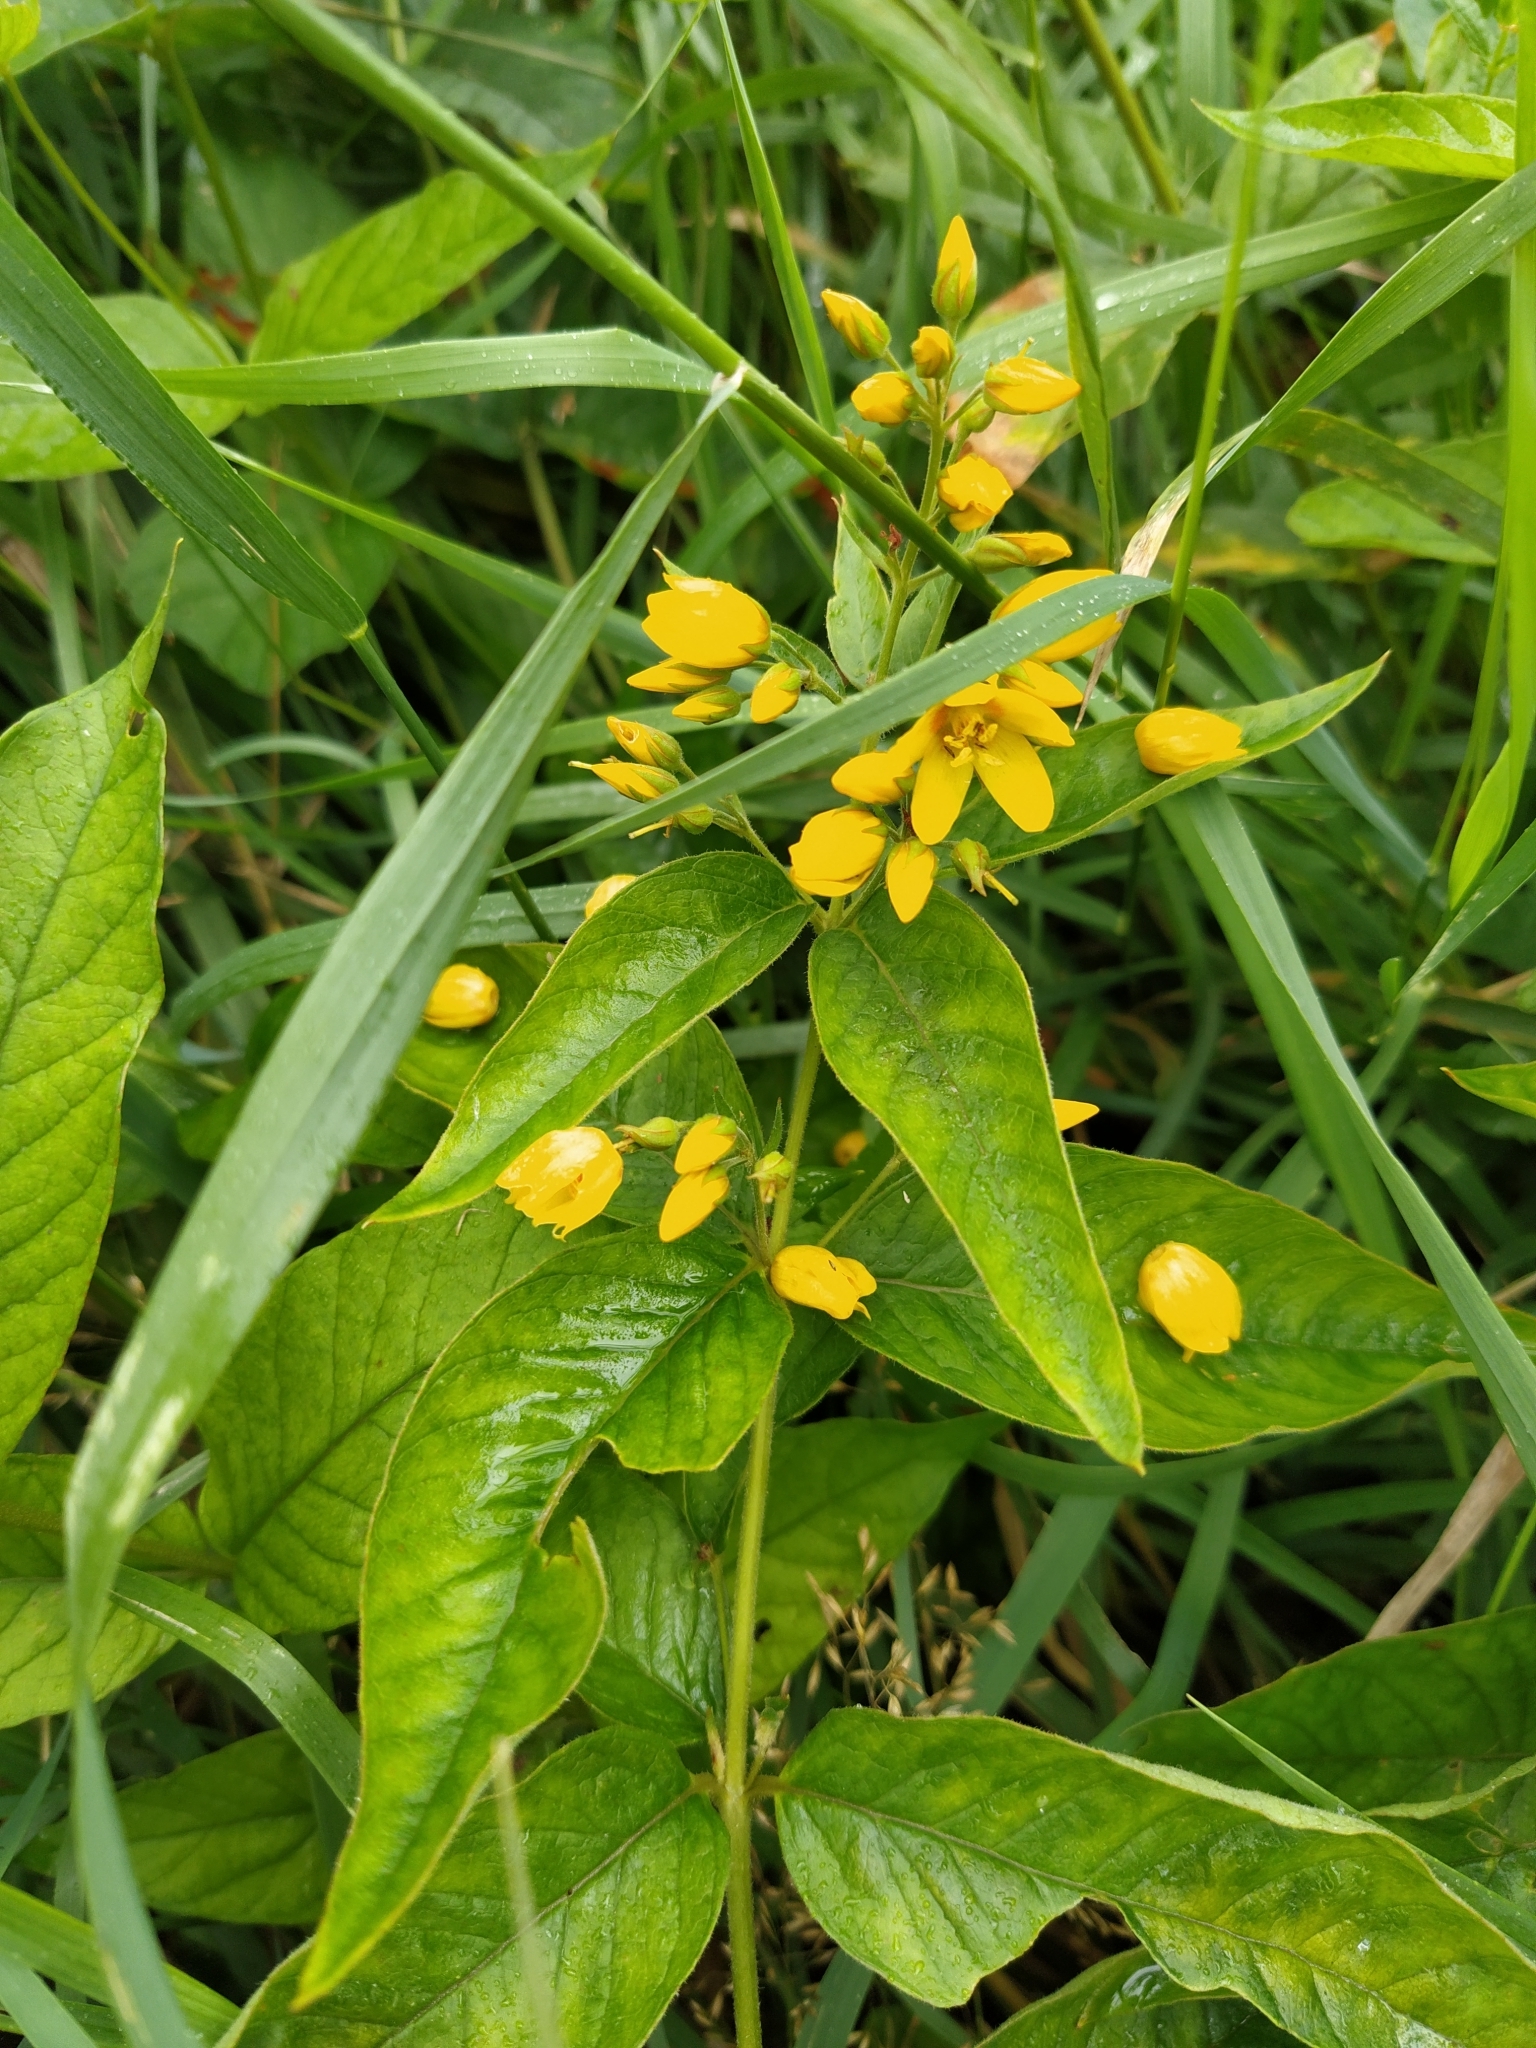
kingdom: Plantae
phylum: Tracheophyta
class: Magnoliopsida
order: Ericales
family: Primulaceae
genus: Lysimachia
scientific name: Lysimachia vulgaris
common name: Yellow loosestrife
